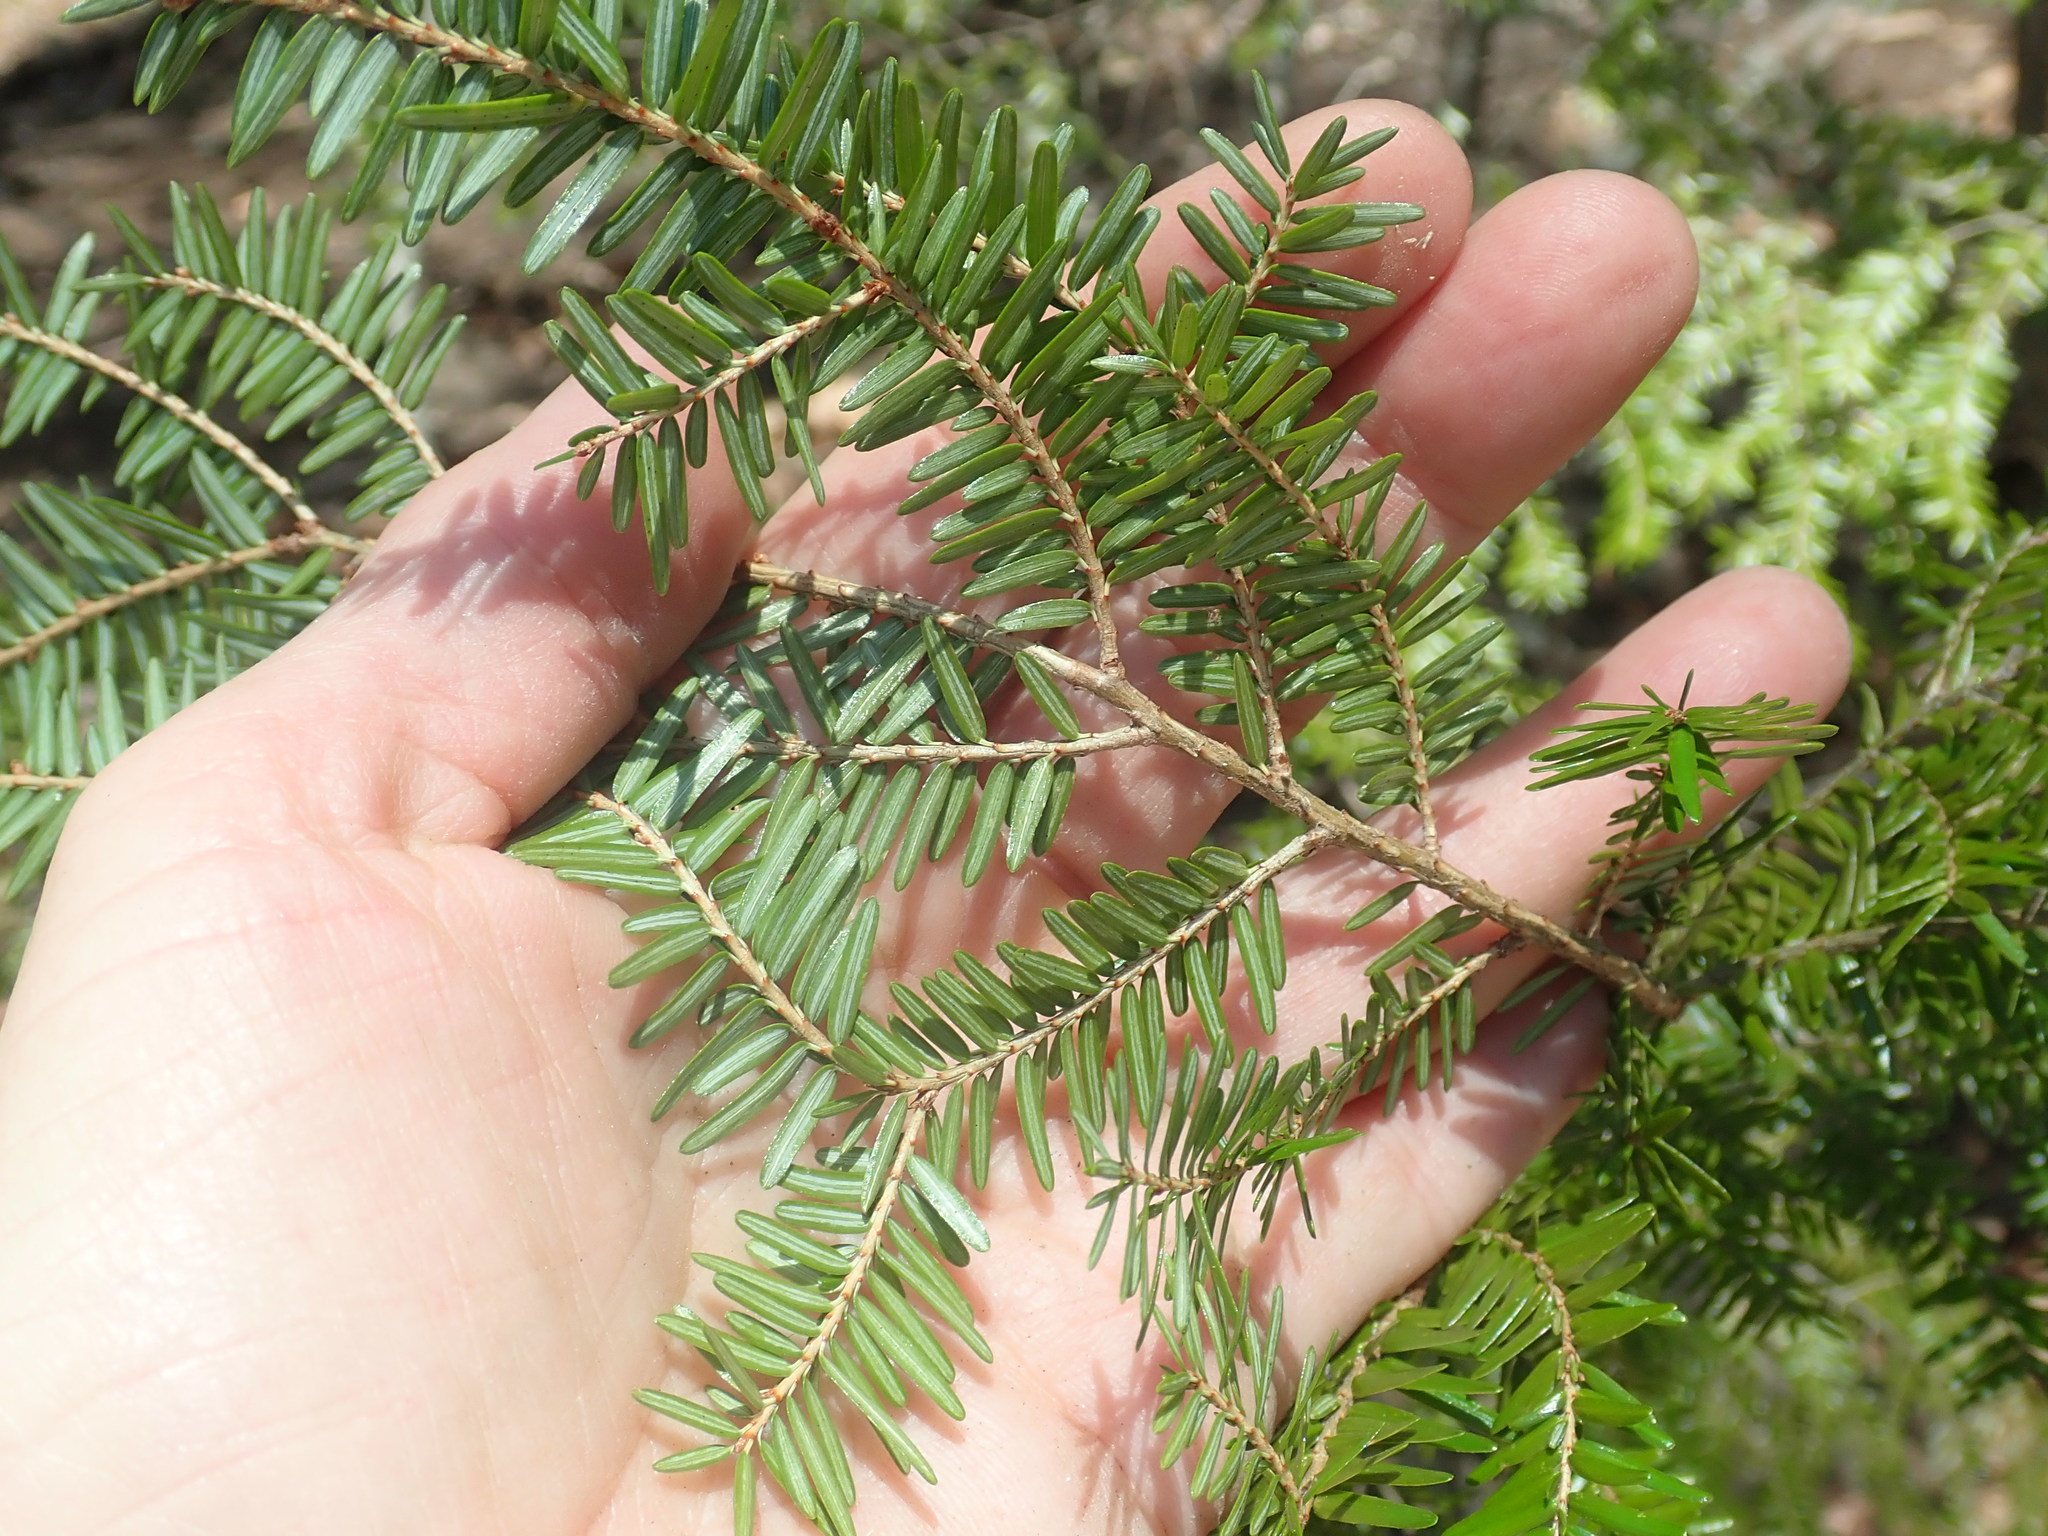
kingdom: Plantae
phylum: Tracheophyta
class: Pinopsida
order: Pinales
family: Pinaceae
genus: Tsuga
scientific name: Tsuga canadensis
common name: Eastern hemlock
